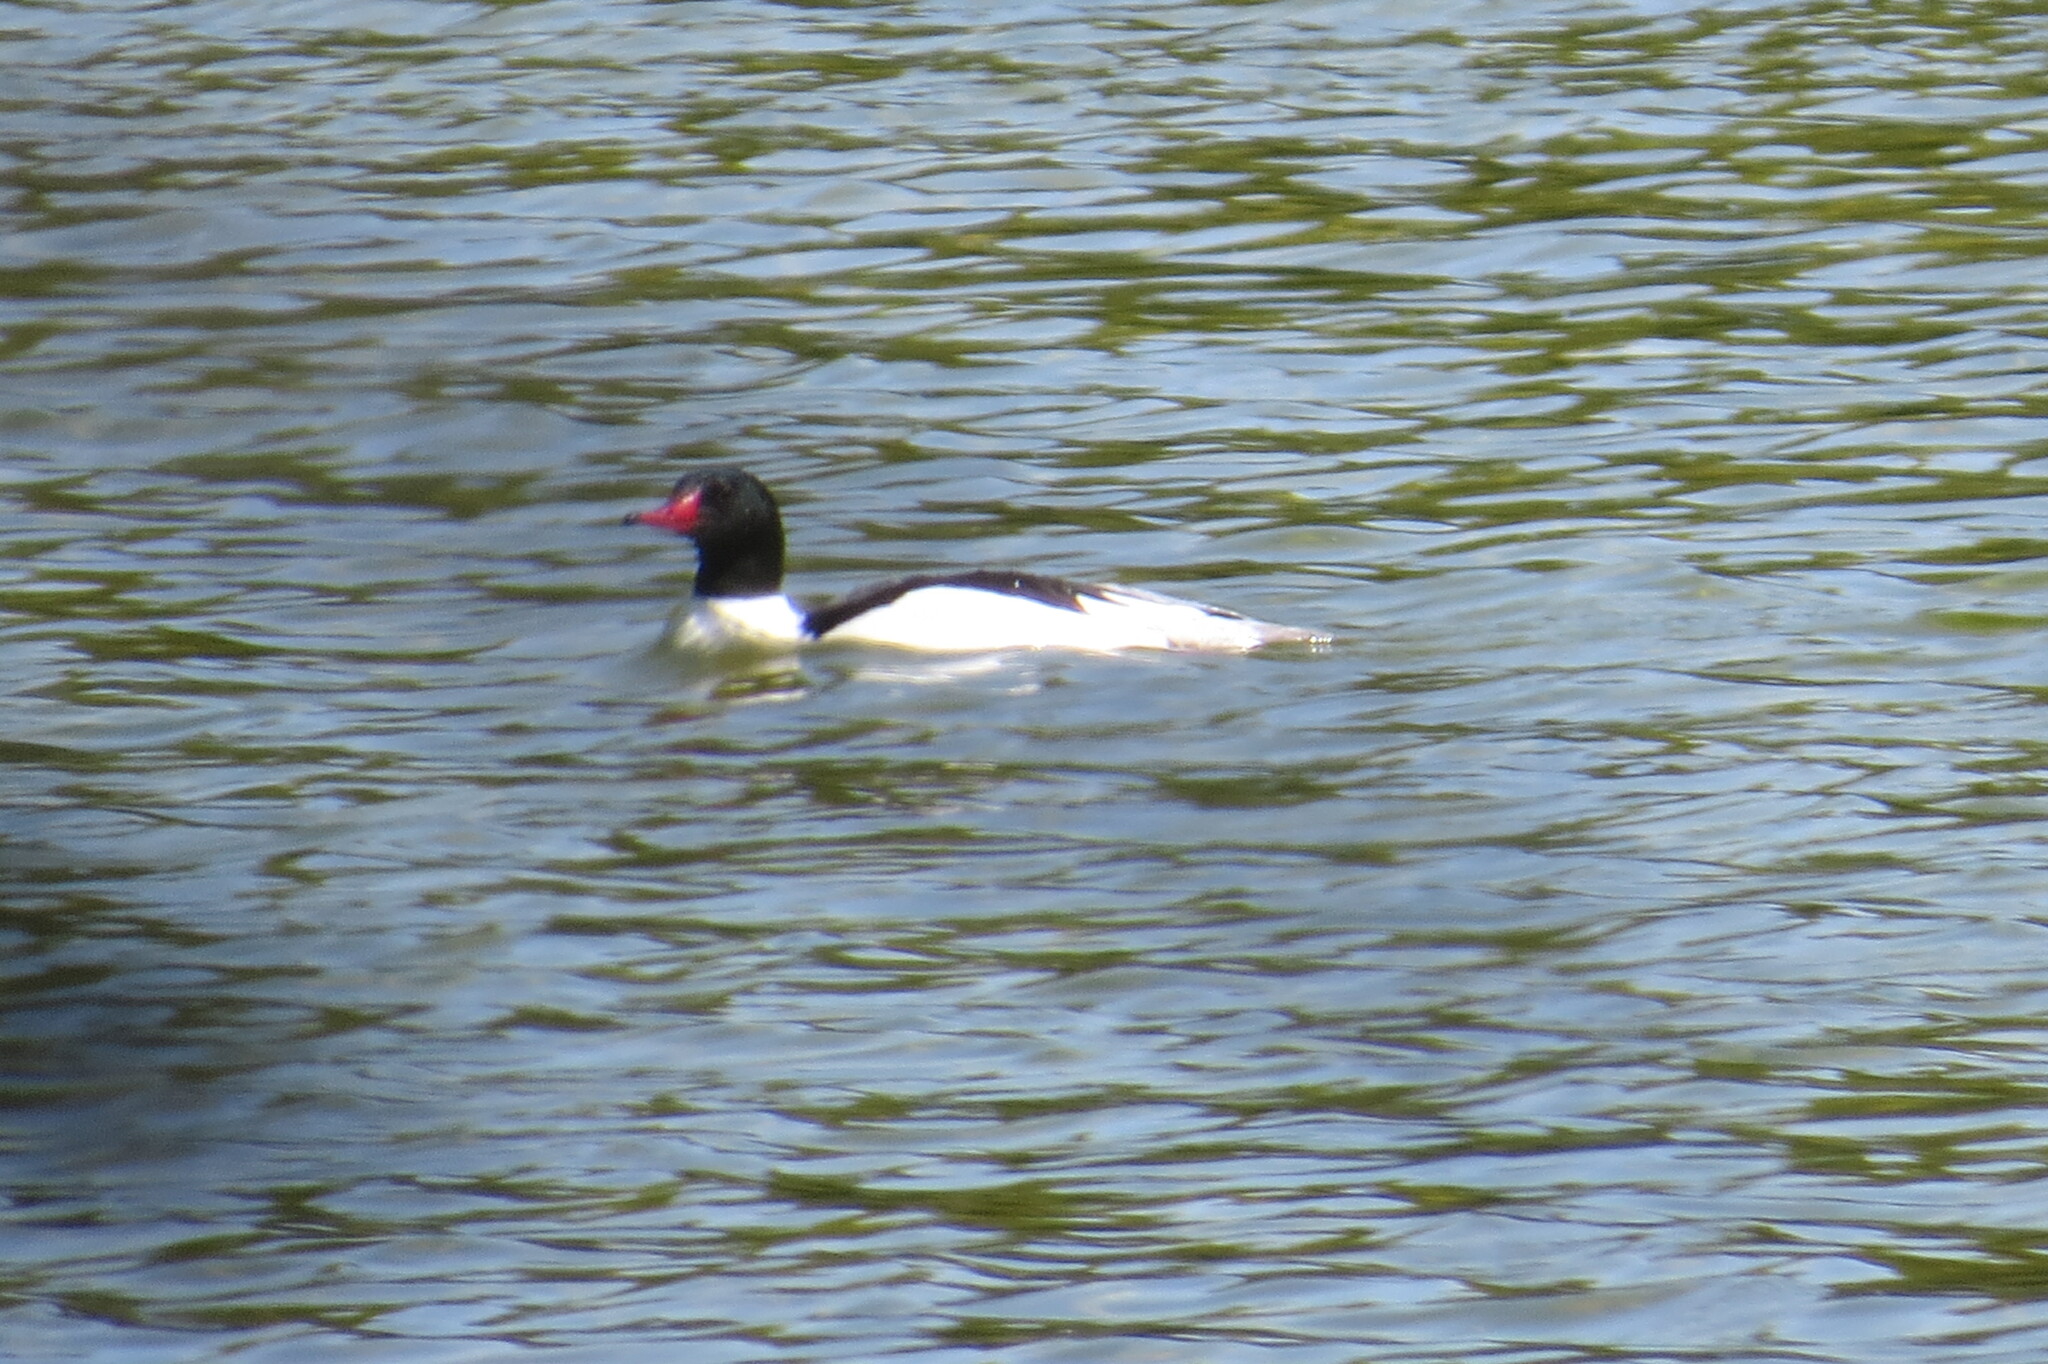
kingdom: Animalia
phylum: Chordata
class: Aves
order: Anseriformes
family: Anatidae
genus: Mergus
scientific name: Mergus merganser
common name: Common merganser
